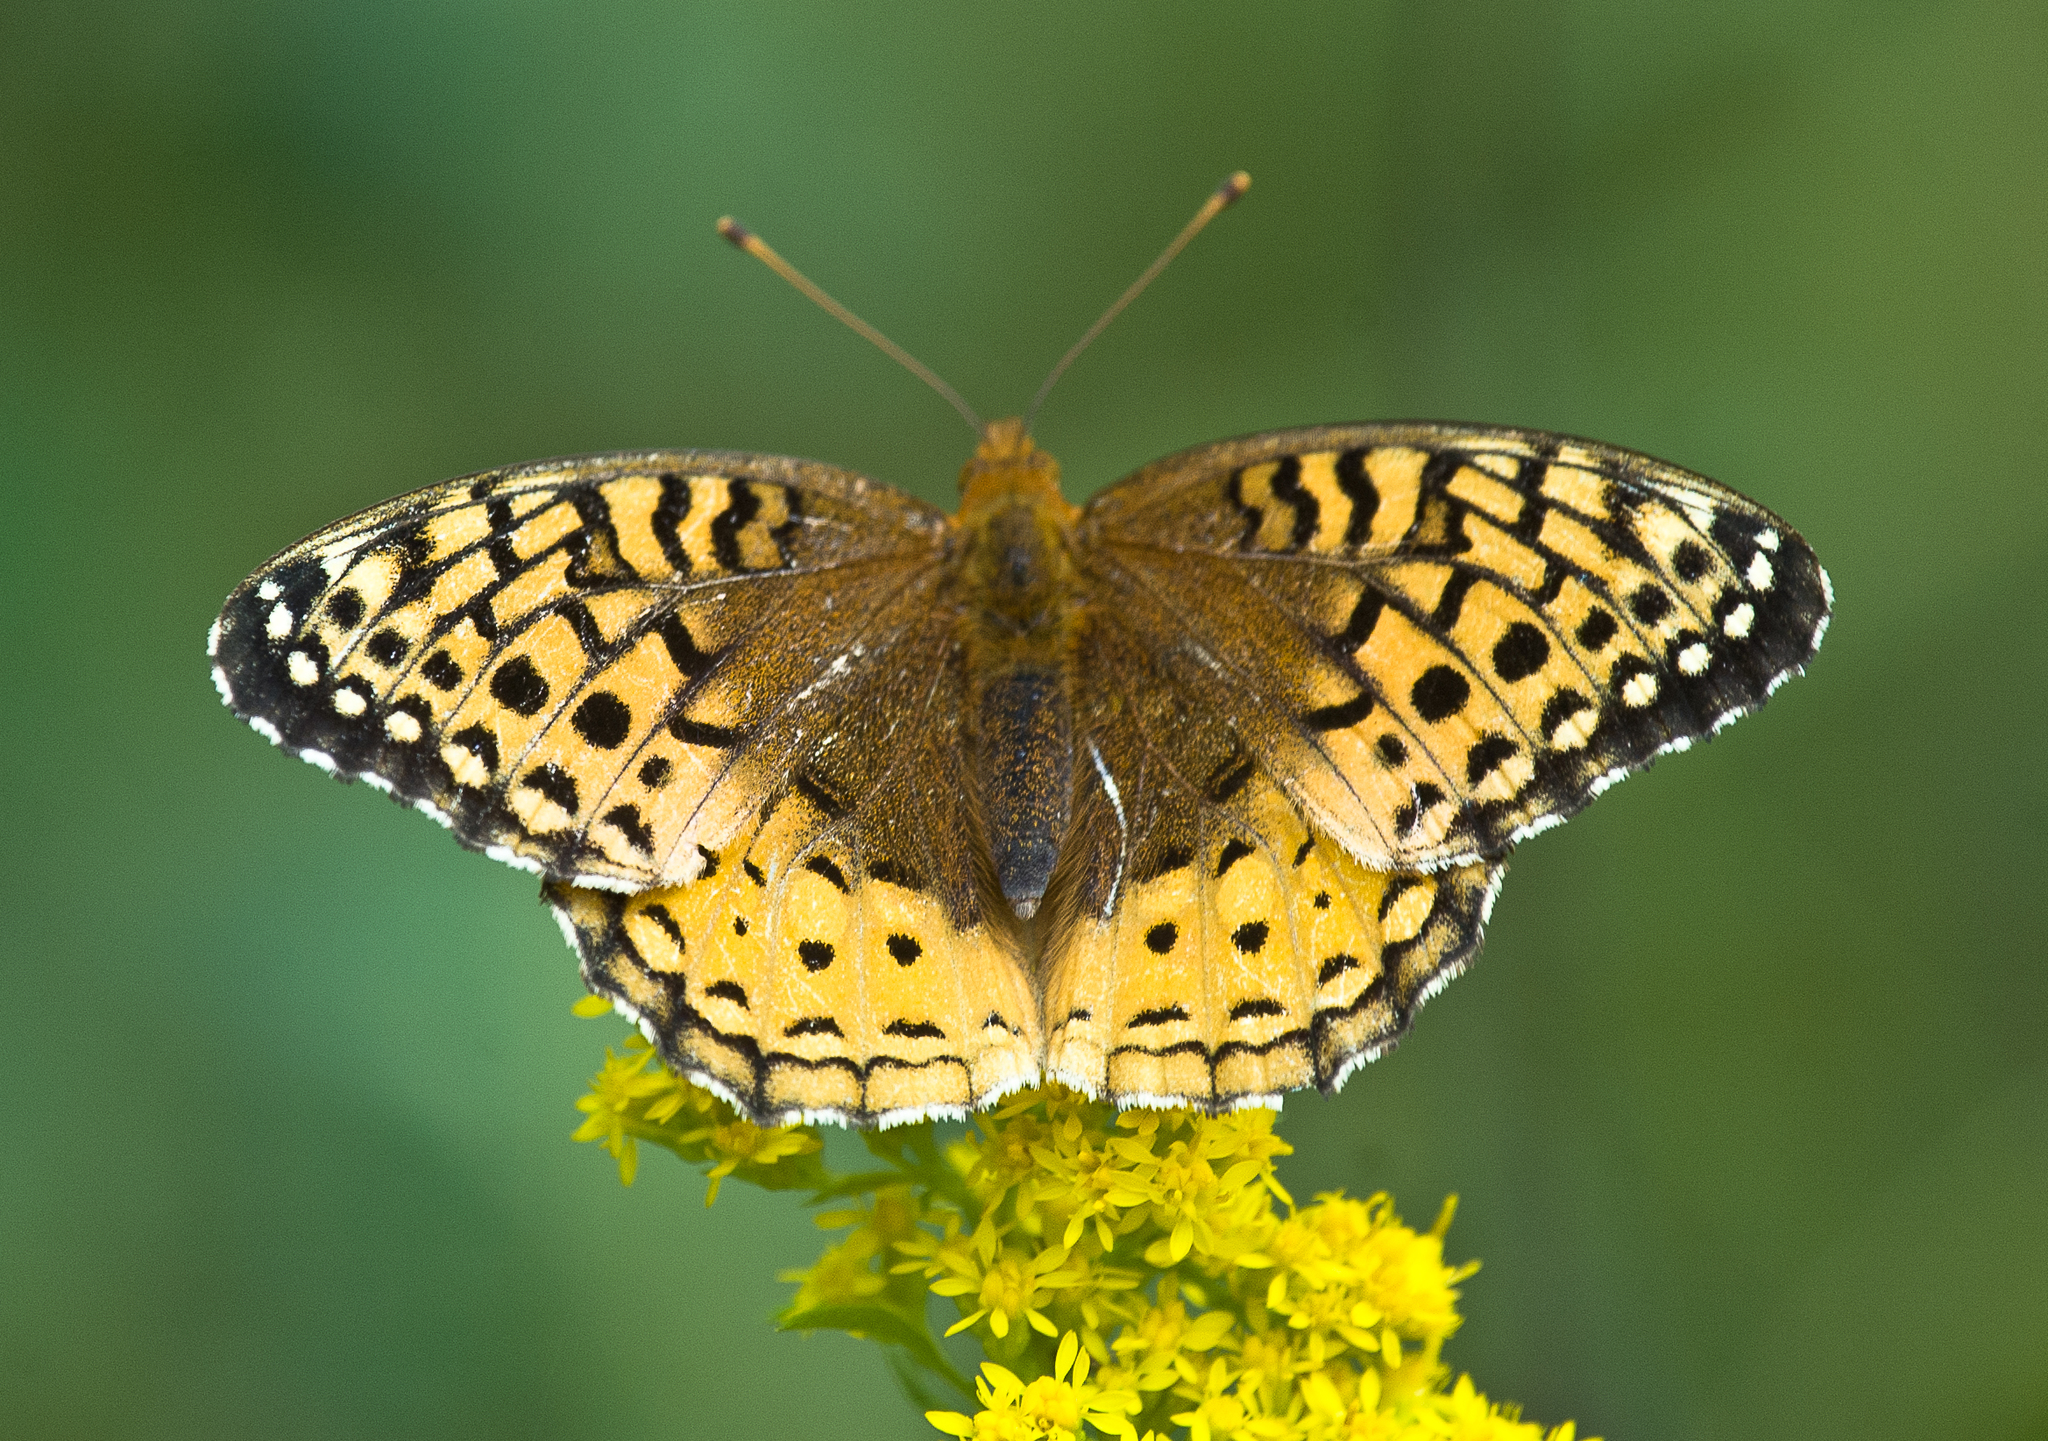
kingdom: Animalia
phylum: Arthropoda
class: Insecta
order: Lepidoptera
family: Nymphalidae
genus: Speyeria
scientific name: Speyeria cybele
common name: Great spangled fritillary
